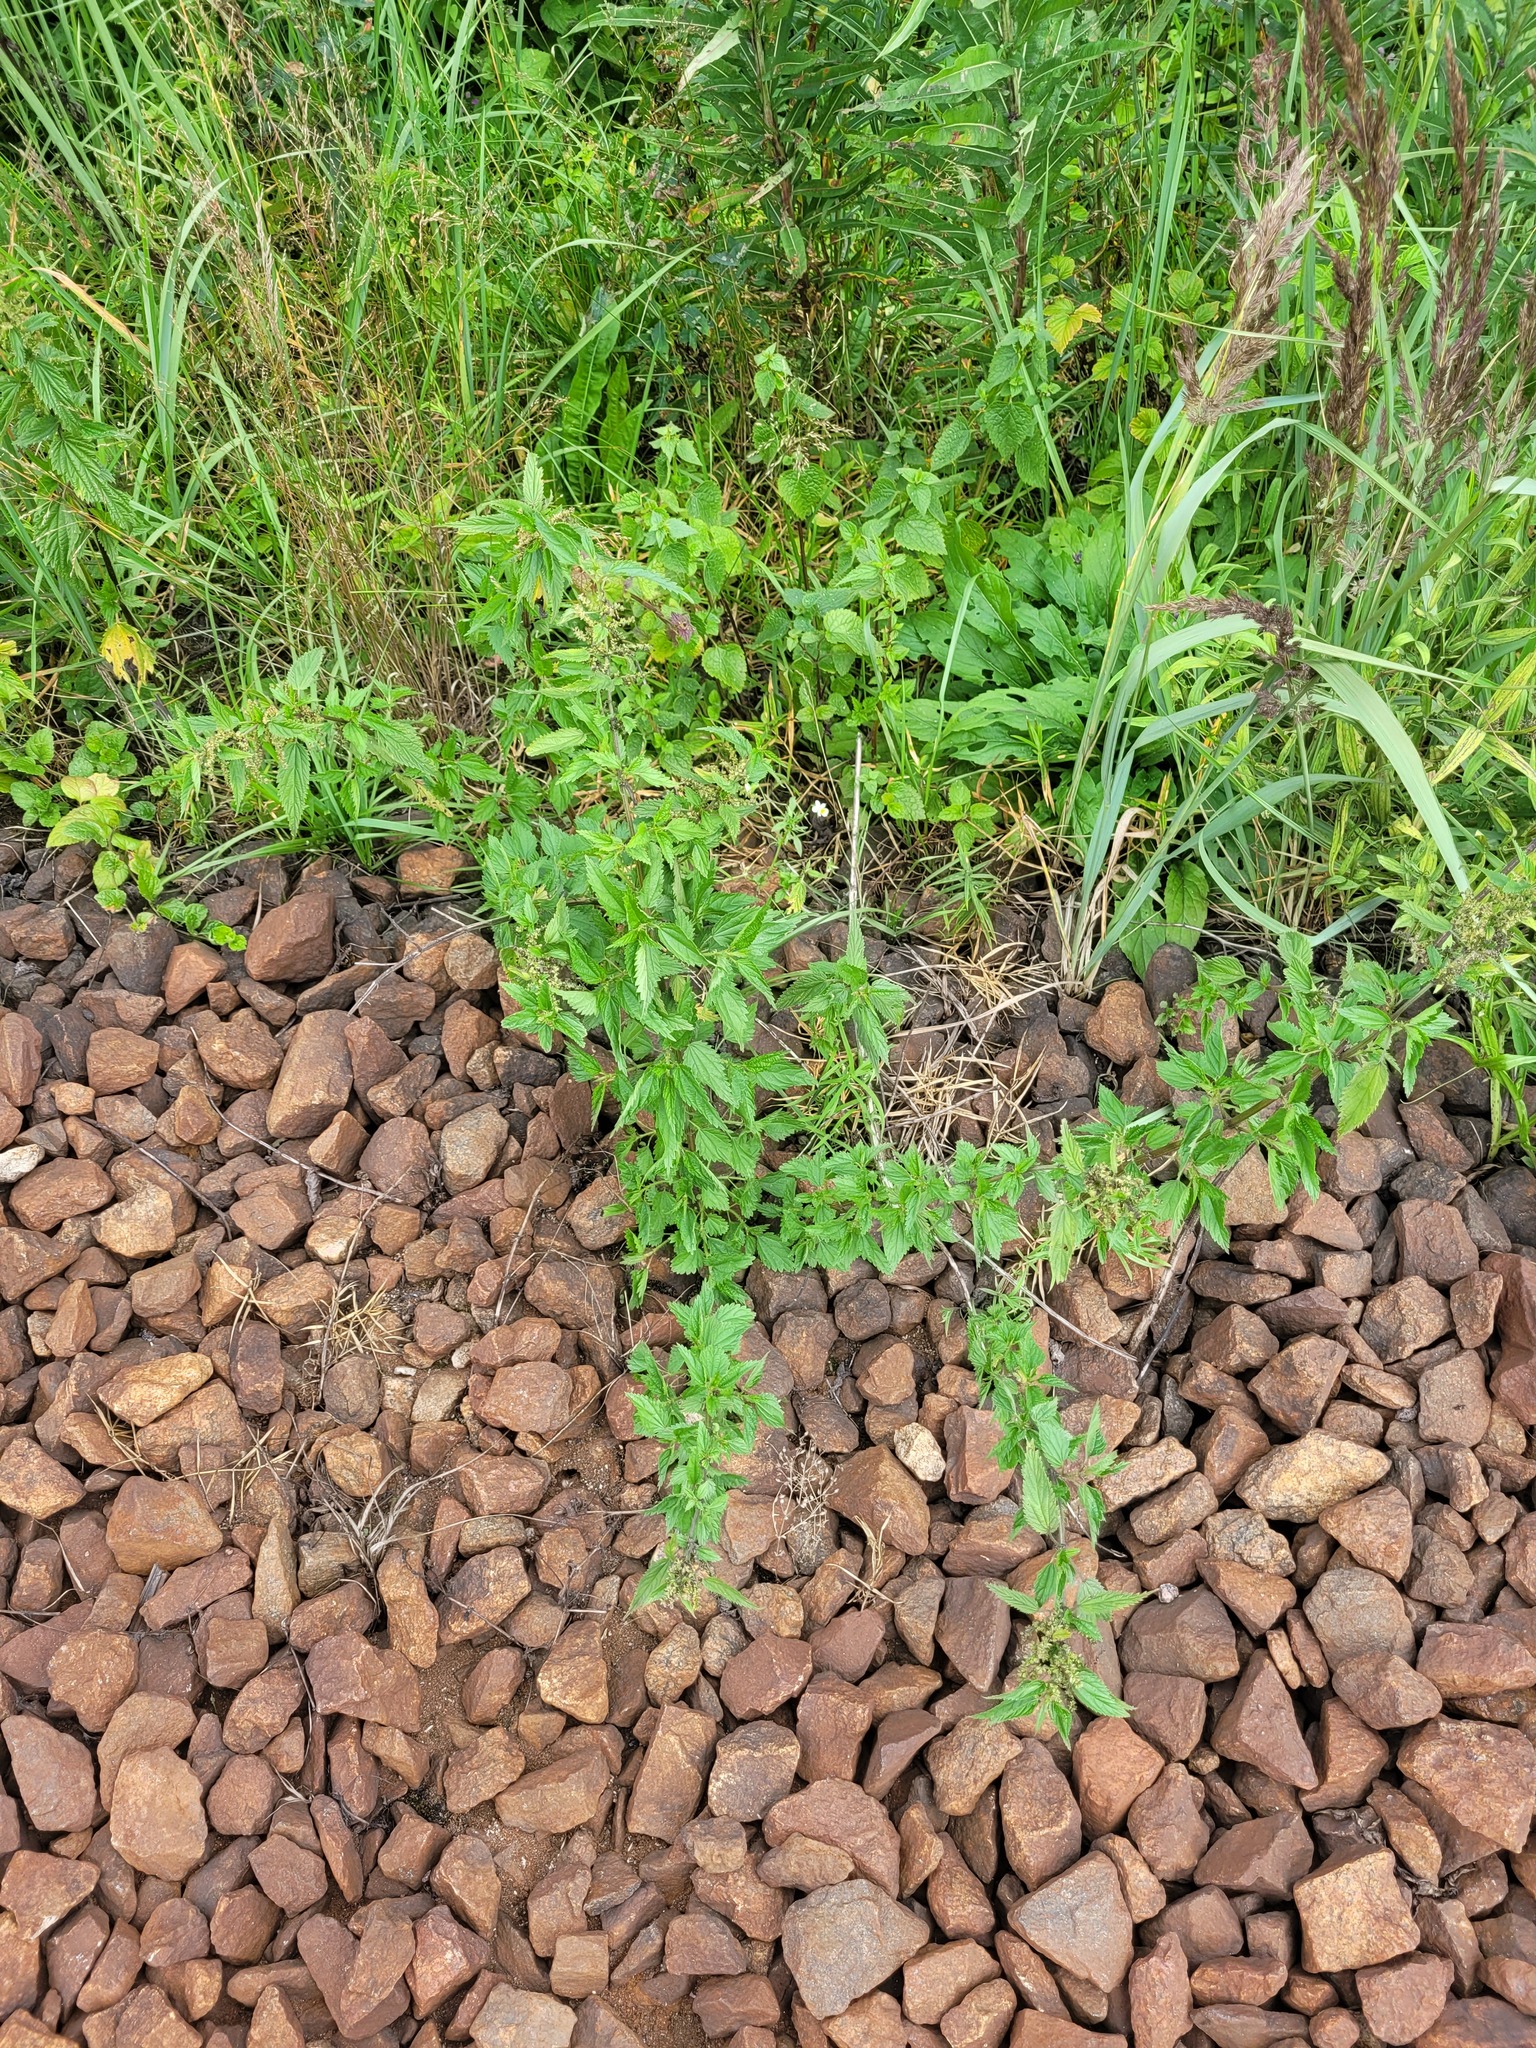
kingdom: Plantae
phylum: Tracheophyta
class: Magnoliopsida
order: Rosales
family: Urticaceae
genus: Urtica
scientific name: Urtica dioica
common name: Common nettle
